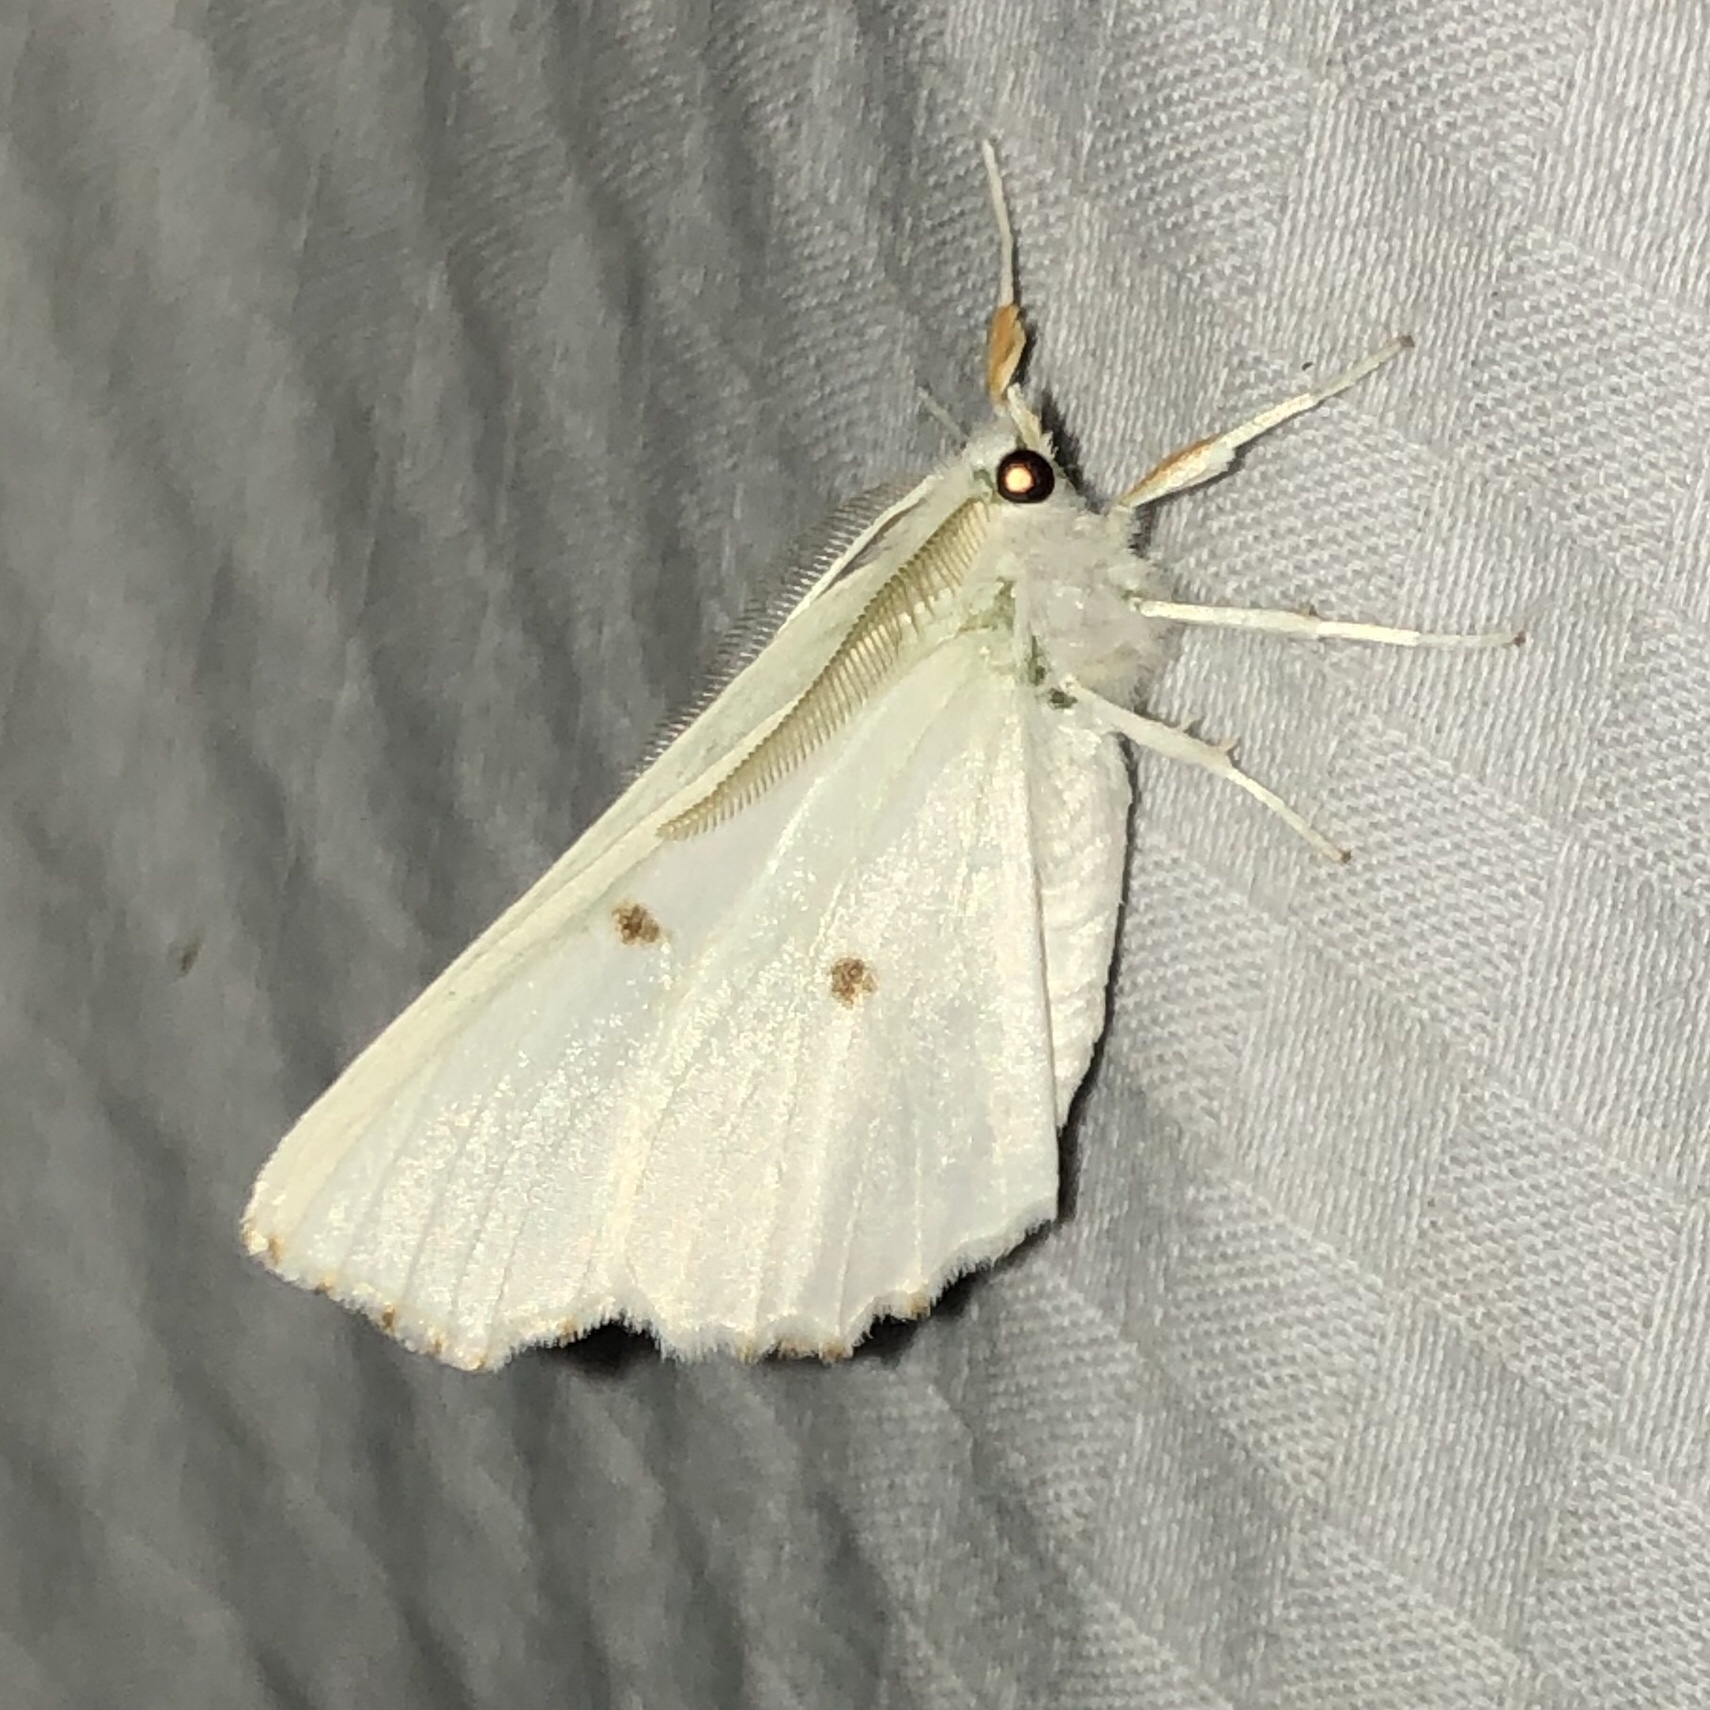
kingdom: Animalia
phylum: Arthropoda
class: Insecta
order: Lepidoptera
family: Geometridae
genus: Ennomos
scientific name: Ennomos subsignaria
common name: Elm spanworm
